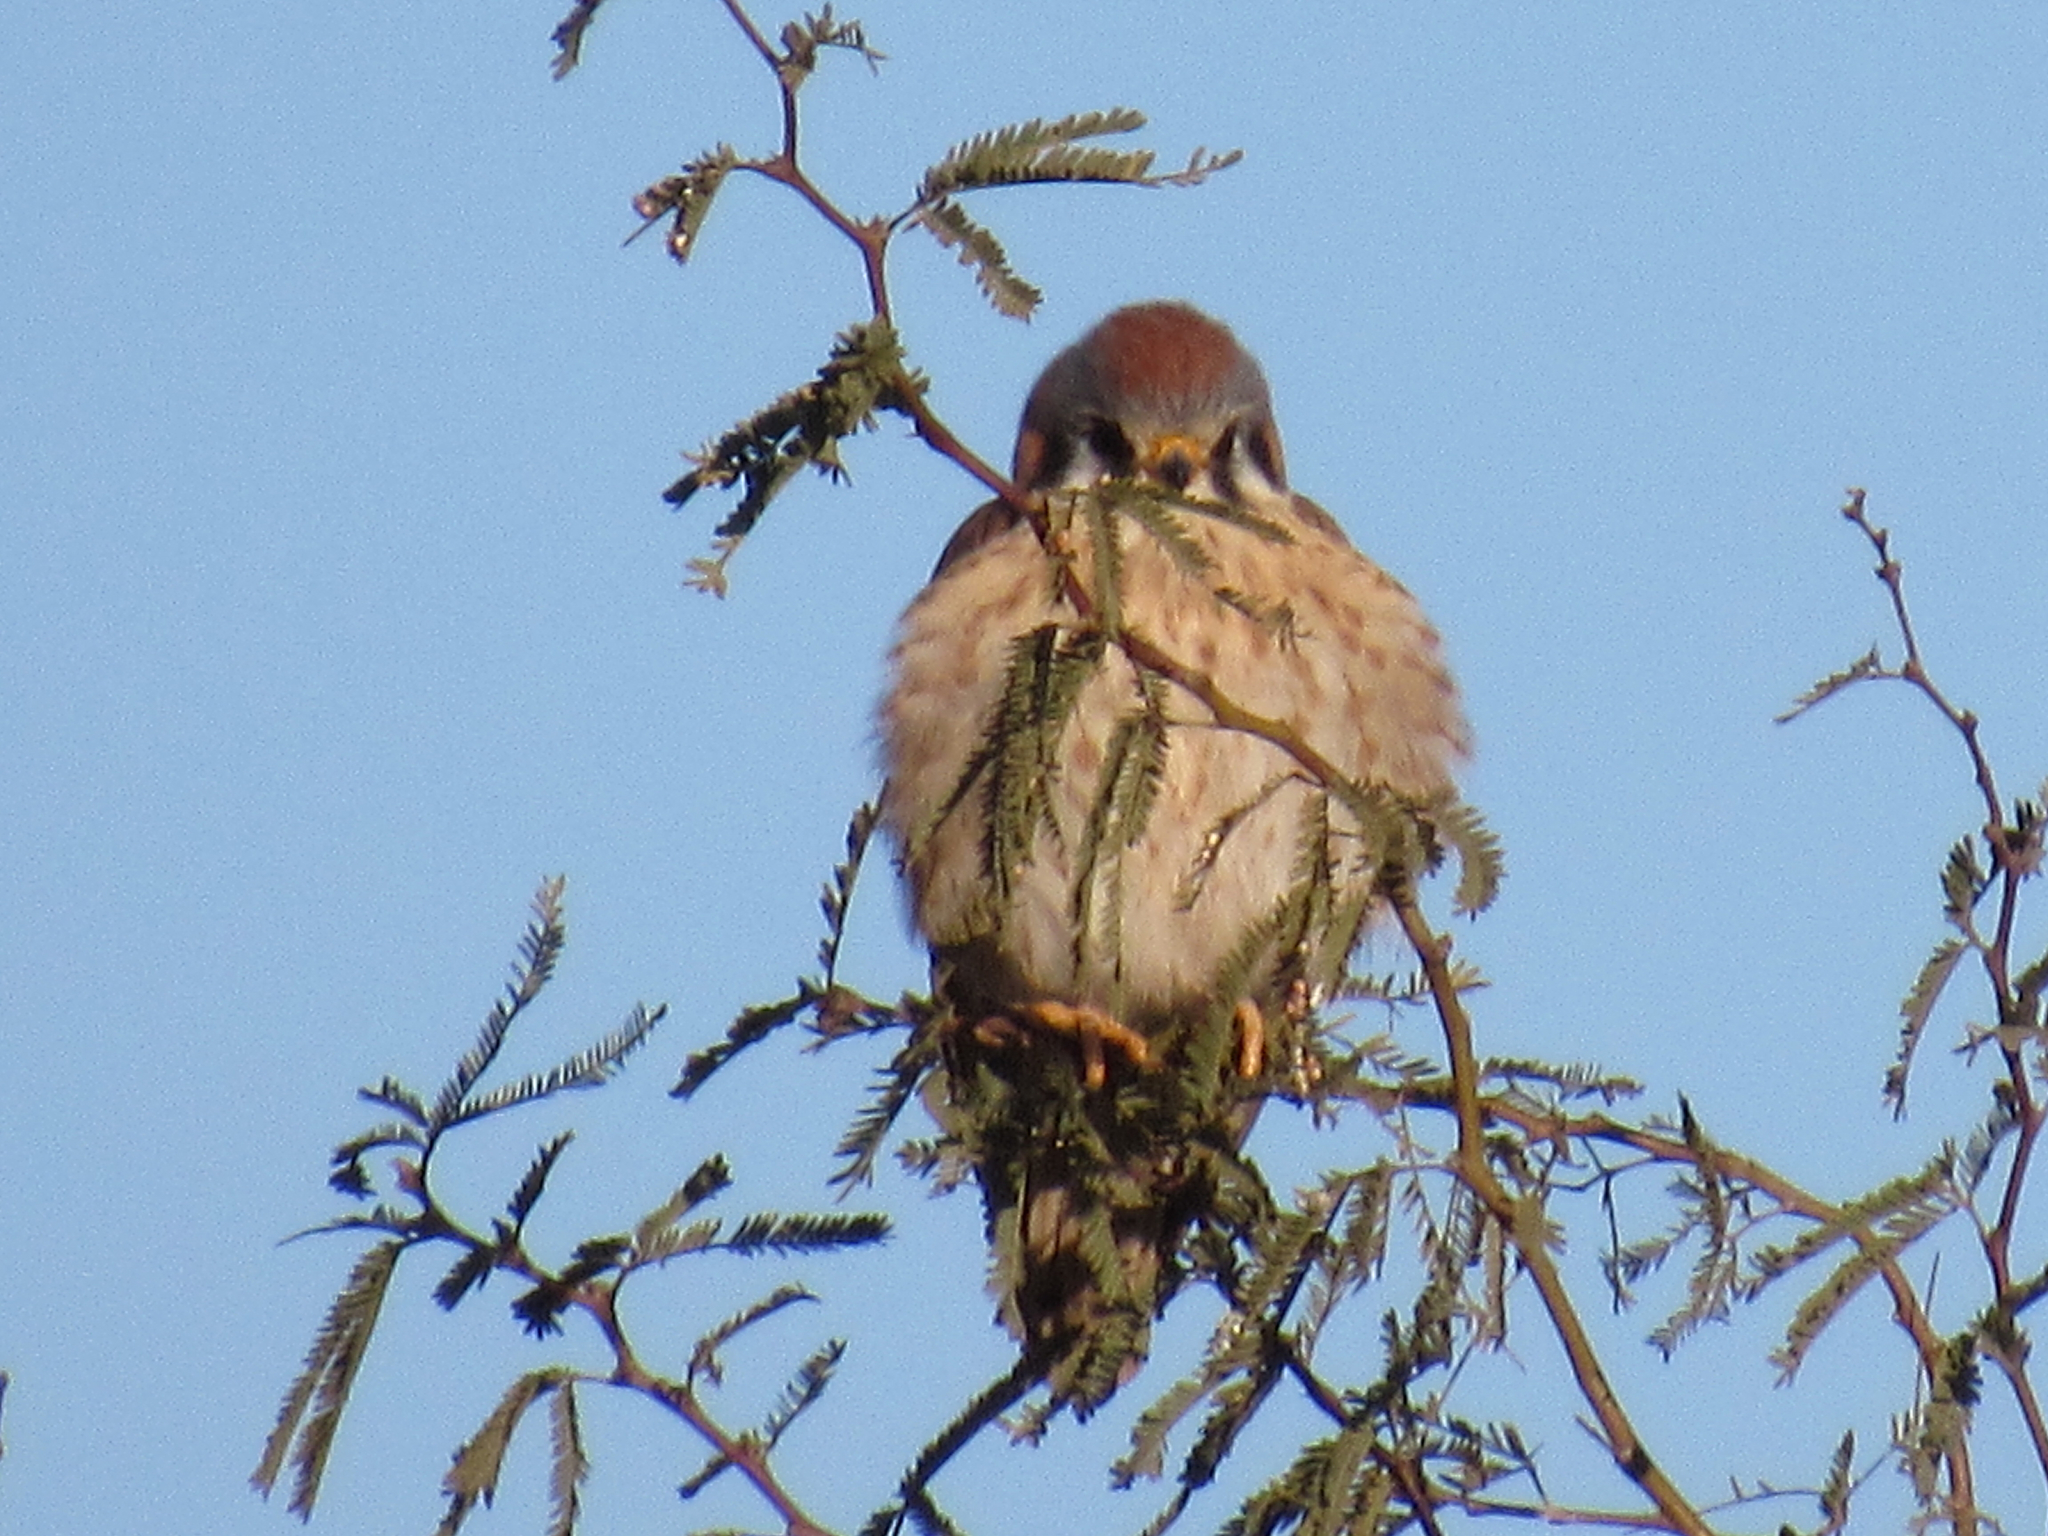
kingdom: Animalia
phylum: Chordata
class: Aves
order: Falconiformes
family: Falconidae
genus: Falco
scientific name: Falco sparverius
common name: American kestrel
